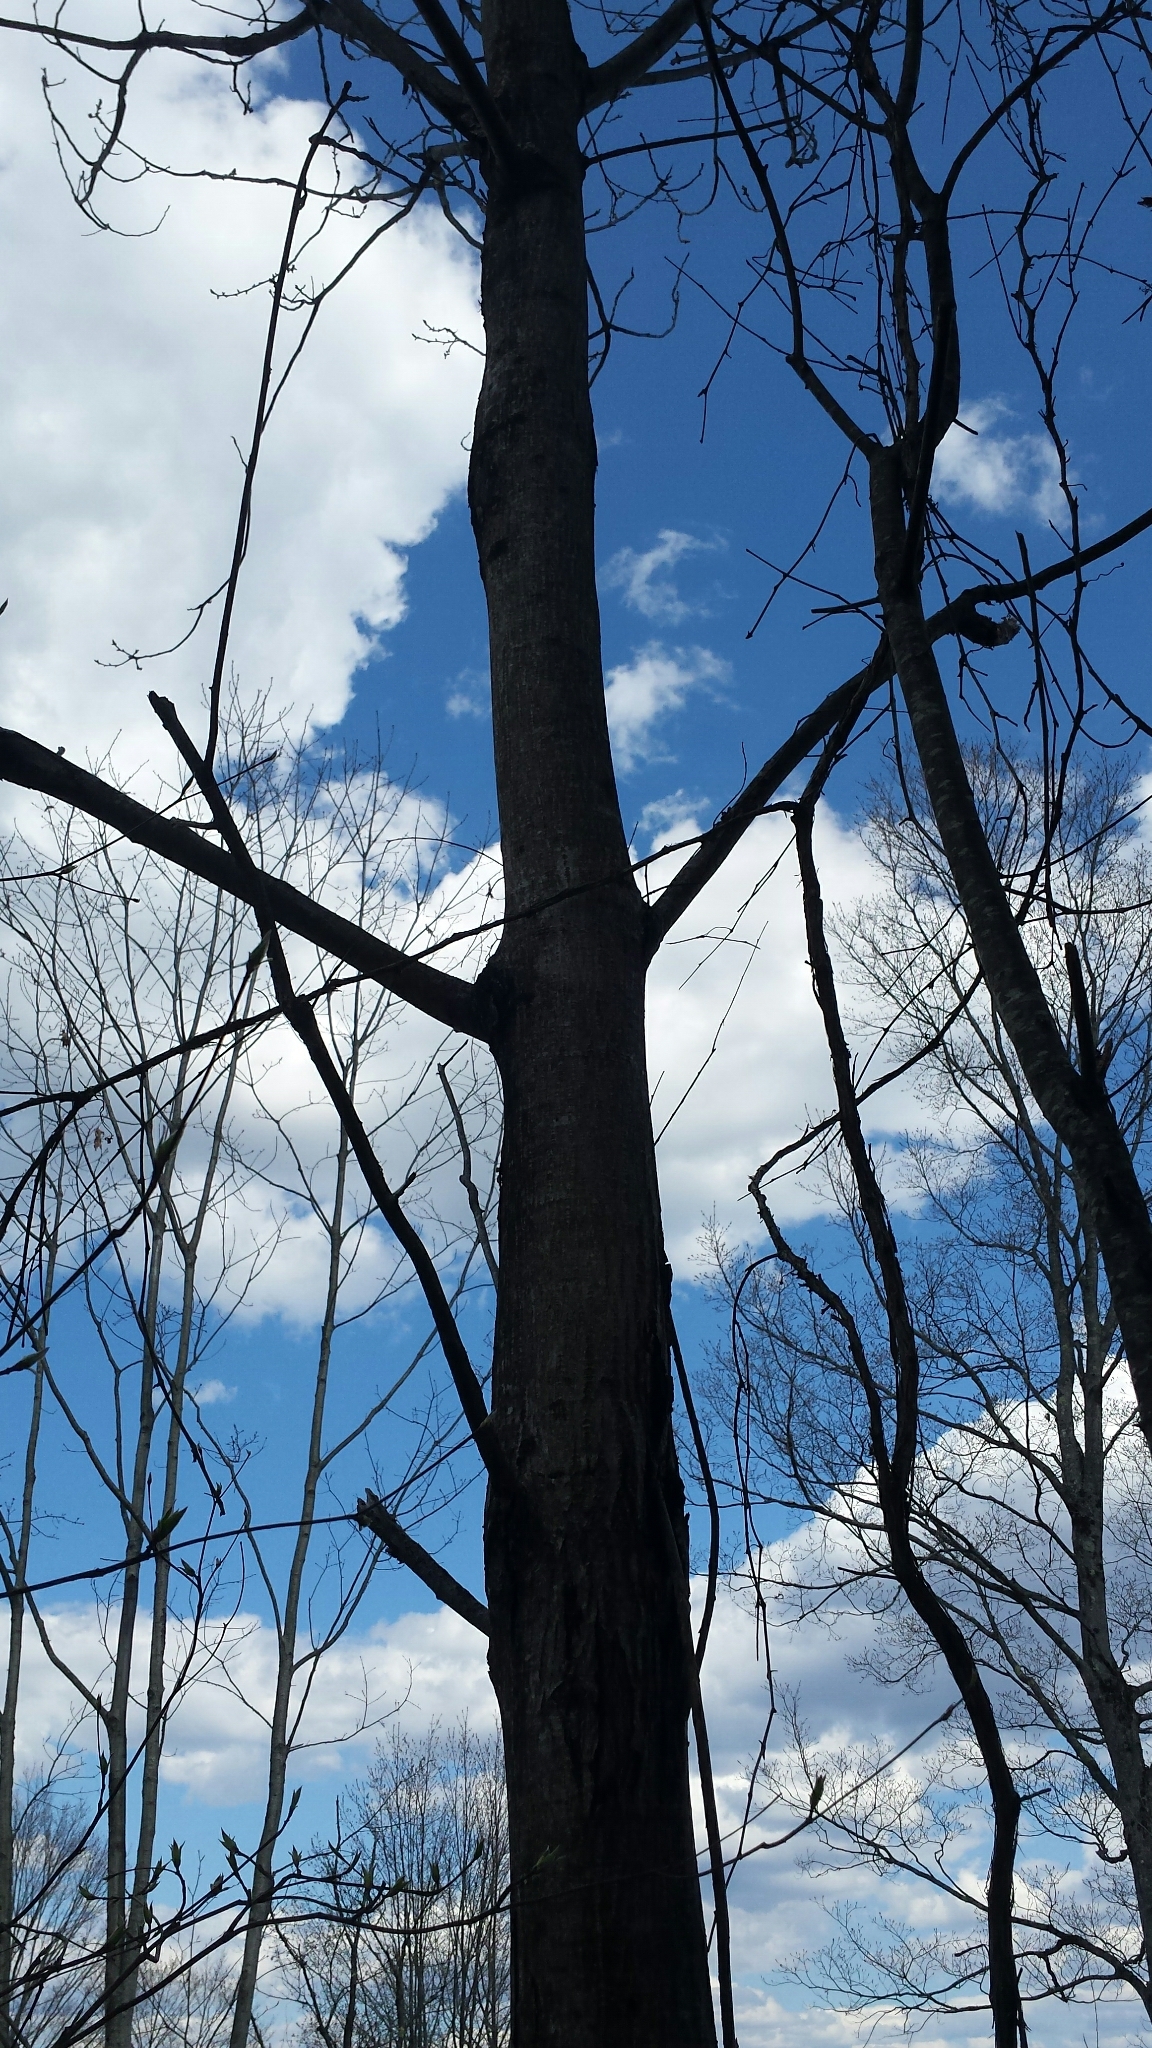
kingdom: Plantae
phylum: Tracheophyta
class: Magnoliopsida
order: Fagales
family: Juglandaceae
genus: Juglans
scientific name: Juglans cinerea
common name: Butternut
